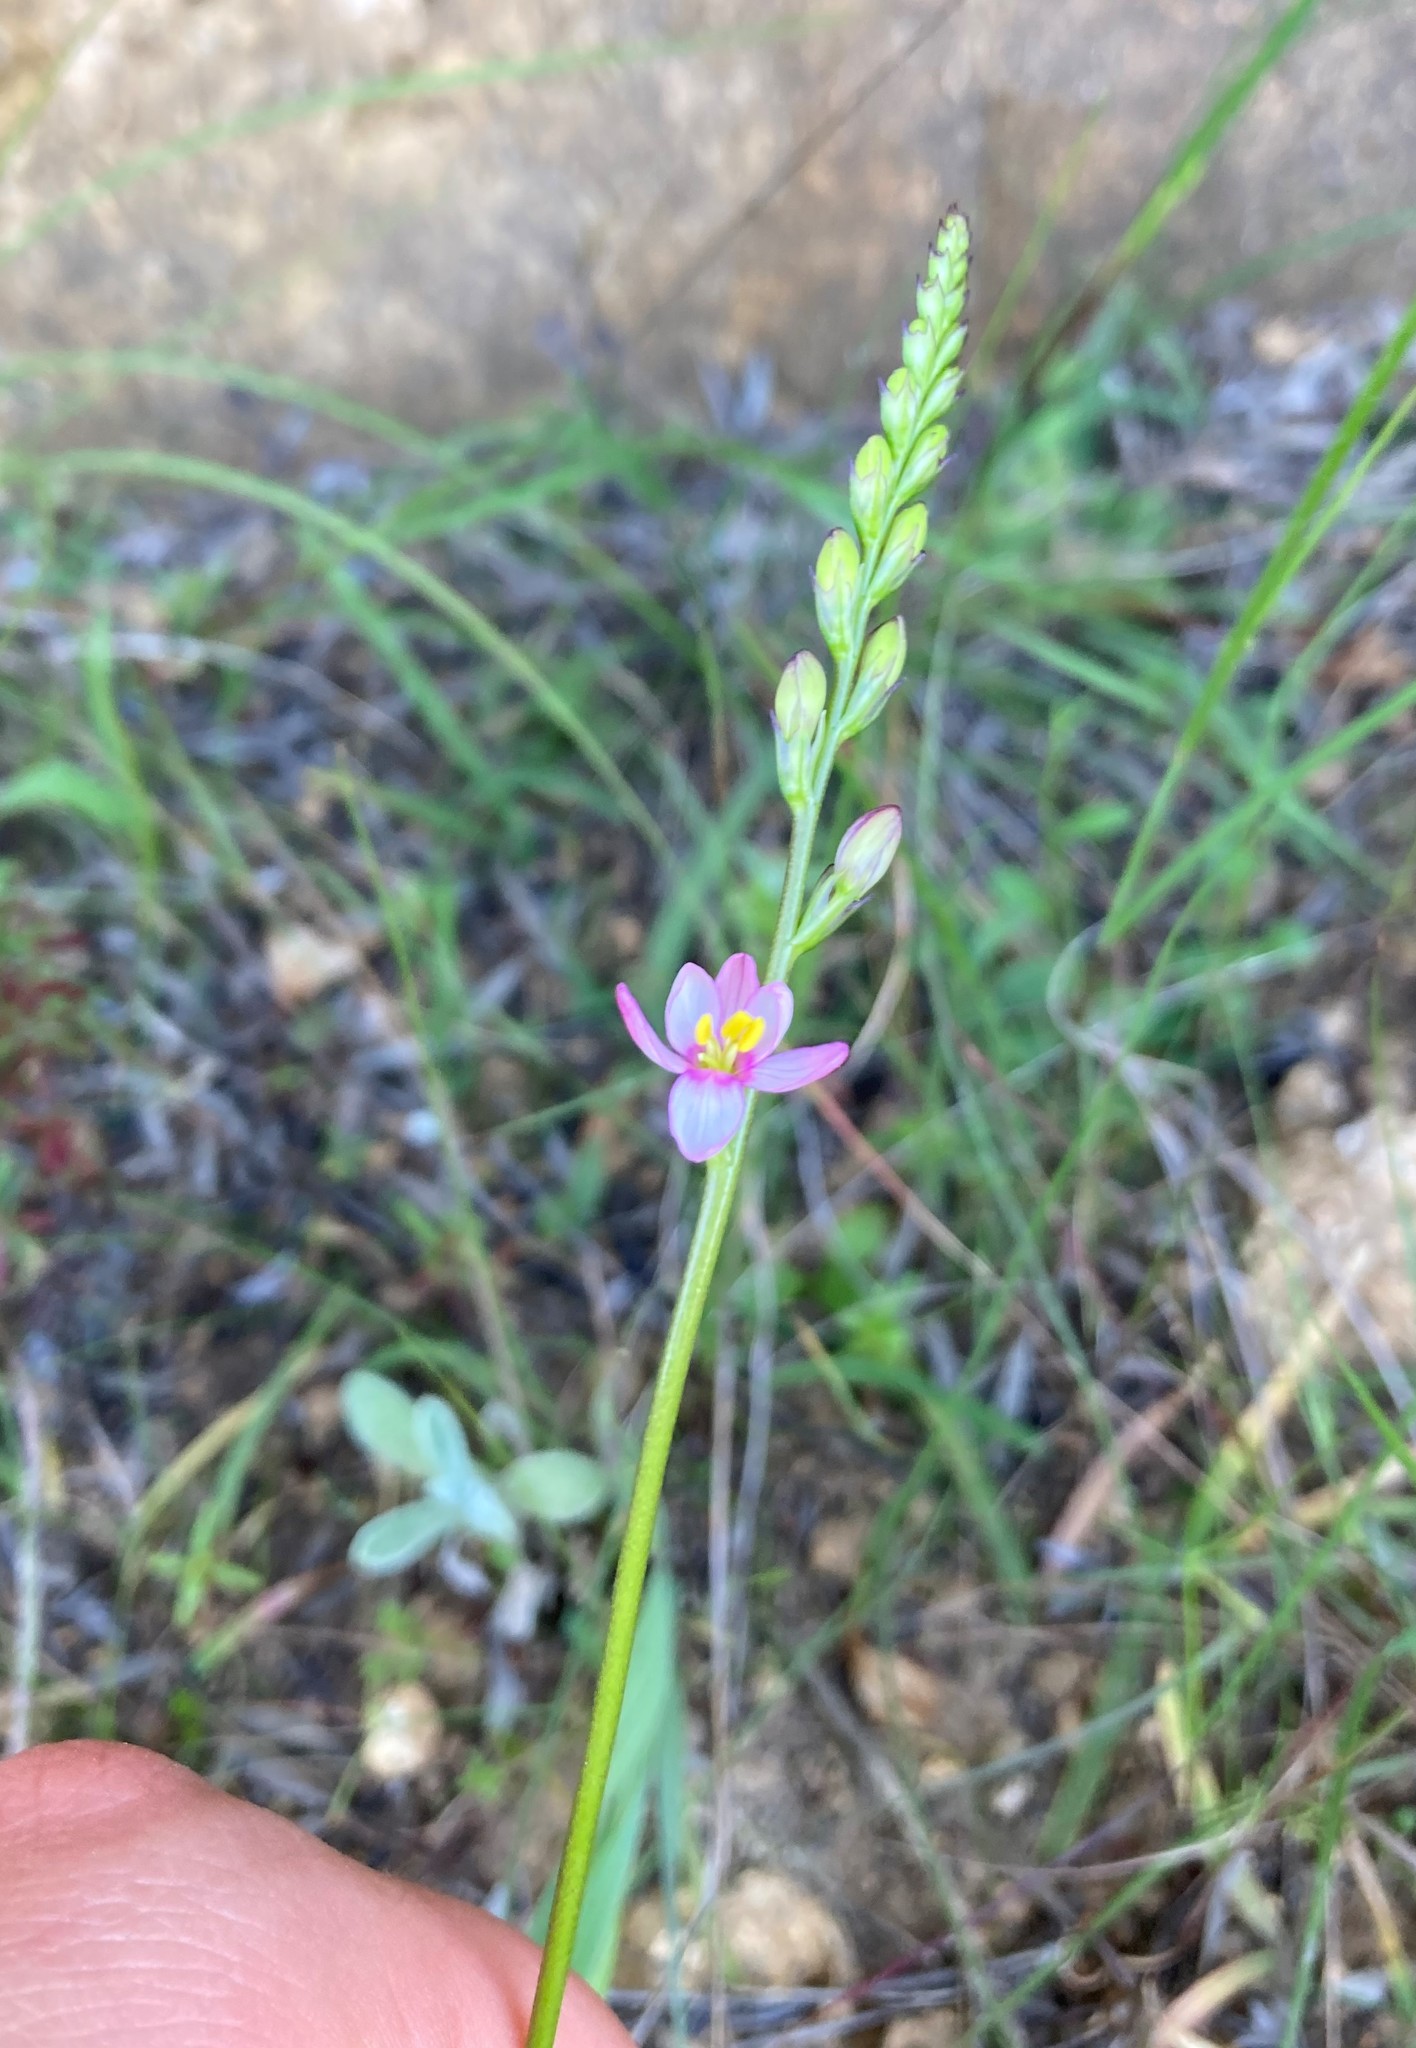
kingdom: Plantae
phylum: Tracheophyta
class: Liliopsida
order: Asparagales
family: Iridaceae
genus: Ixia
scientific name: Ixia scillaris
